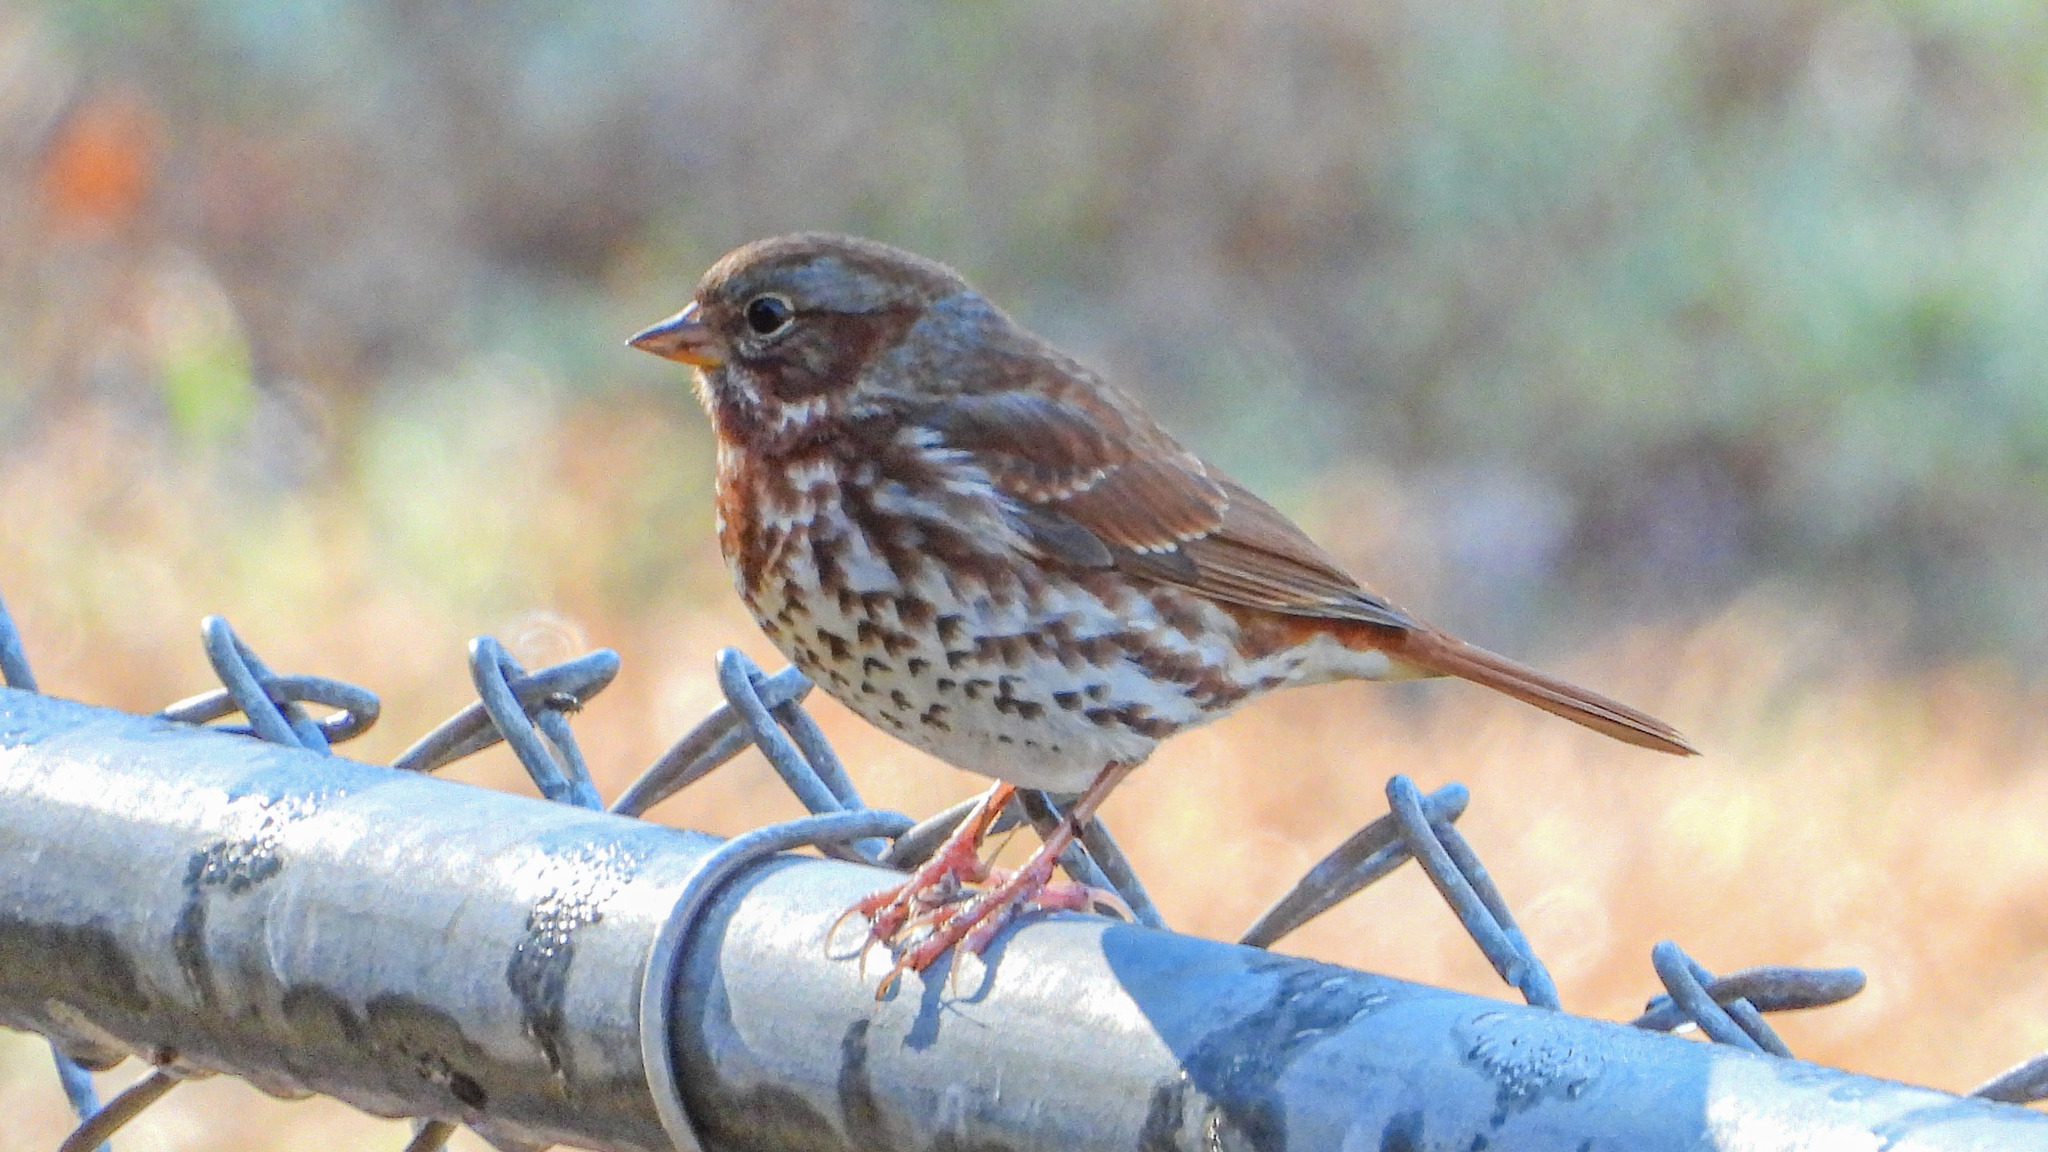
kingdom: Animalia
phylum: Chordata
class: Aves
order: Passeriformes
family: Passerellidae
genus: Passerella
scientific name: Passerella iliaca
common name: Fox sparrow
